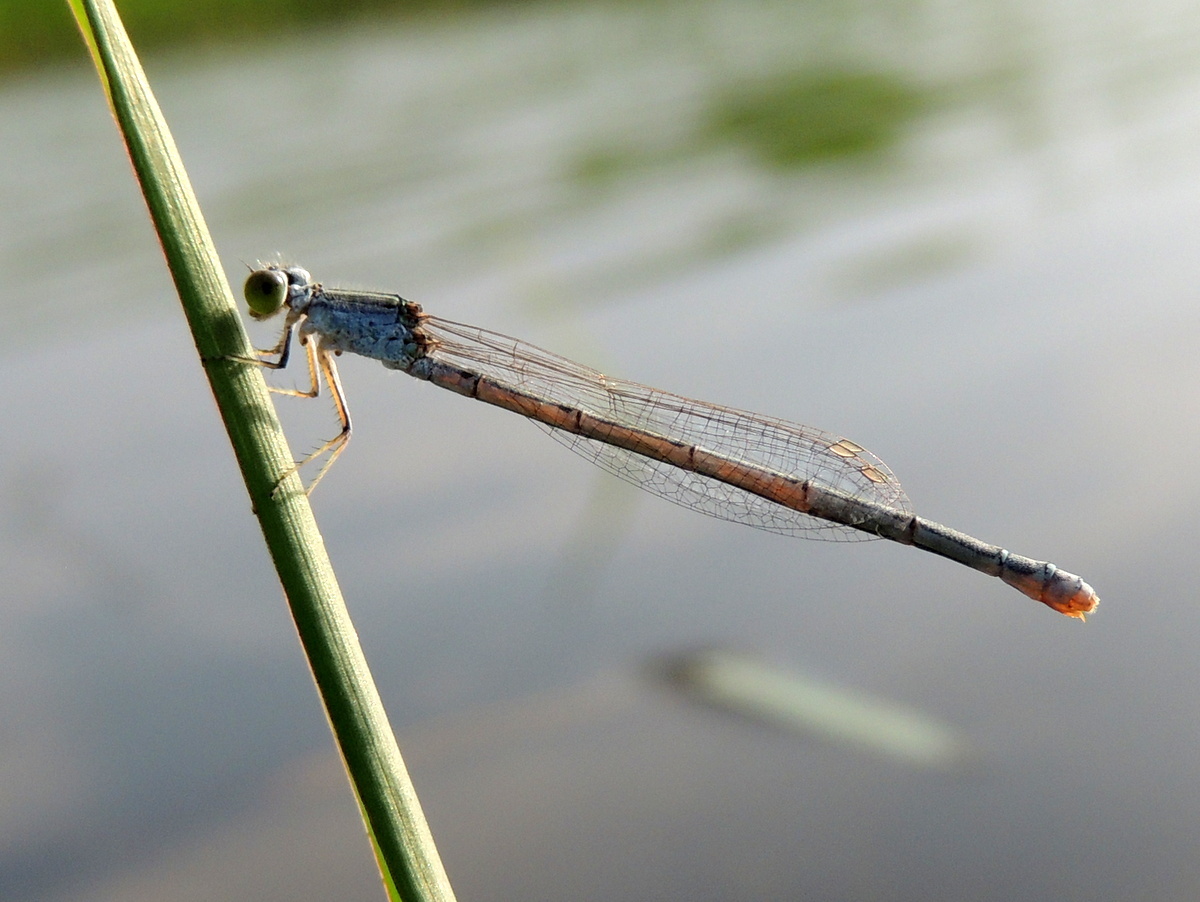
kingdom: Animalia
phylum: Arthropoda
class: Insecta
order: Odonata
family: Coenagrionidae
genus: Pseudagrion
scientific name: Pseudagrion hypermelas
